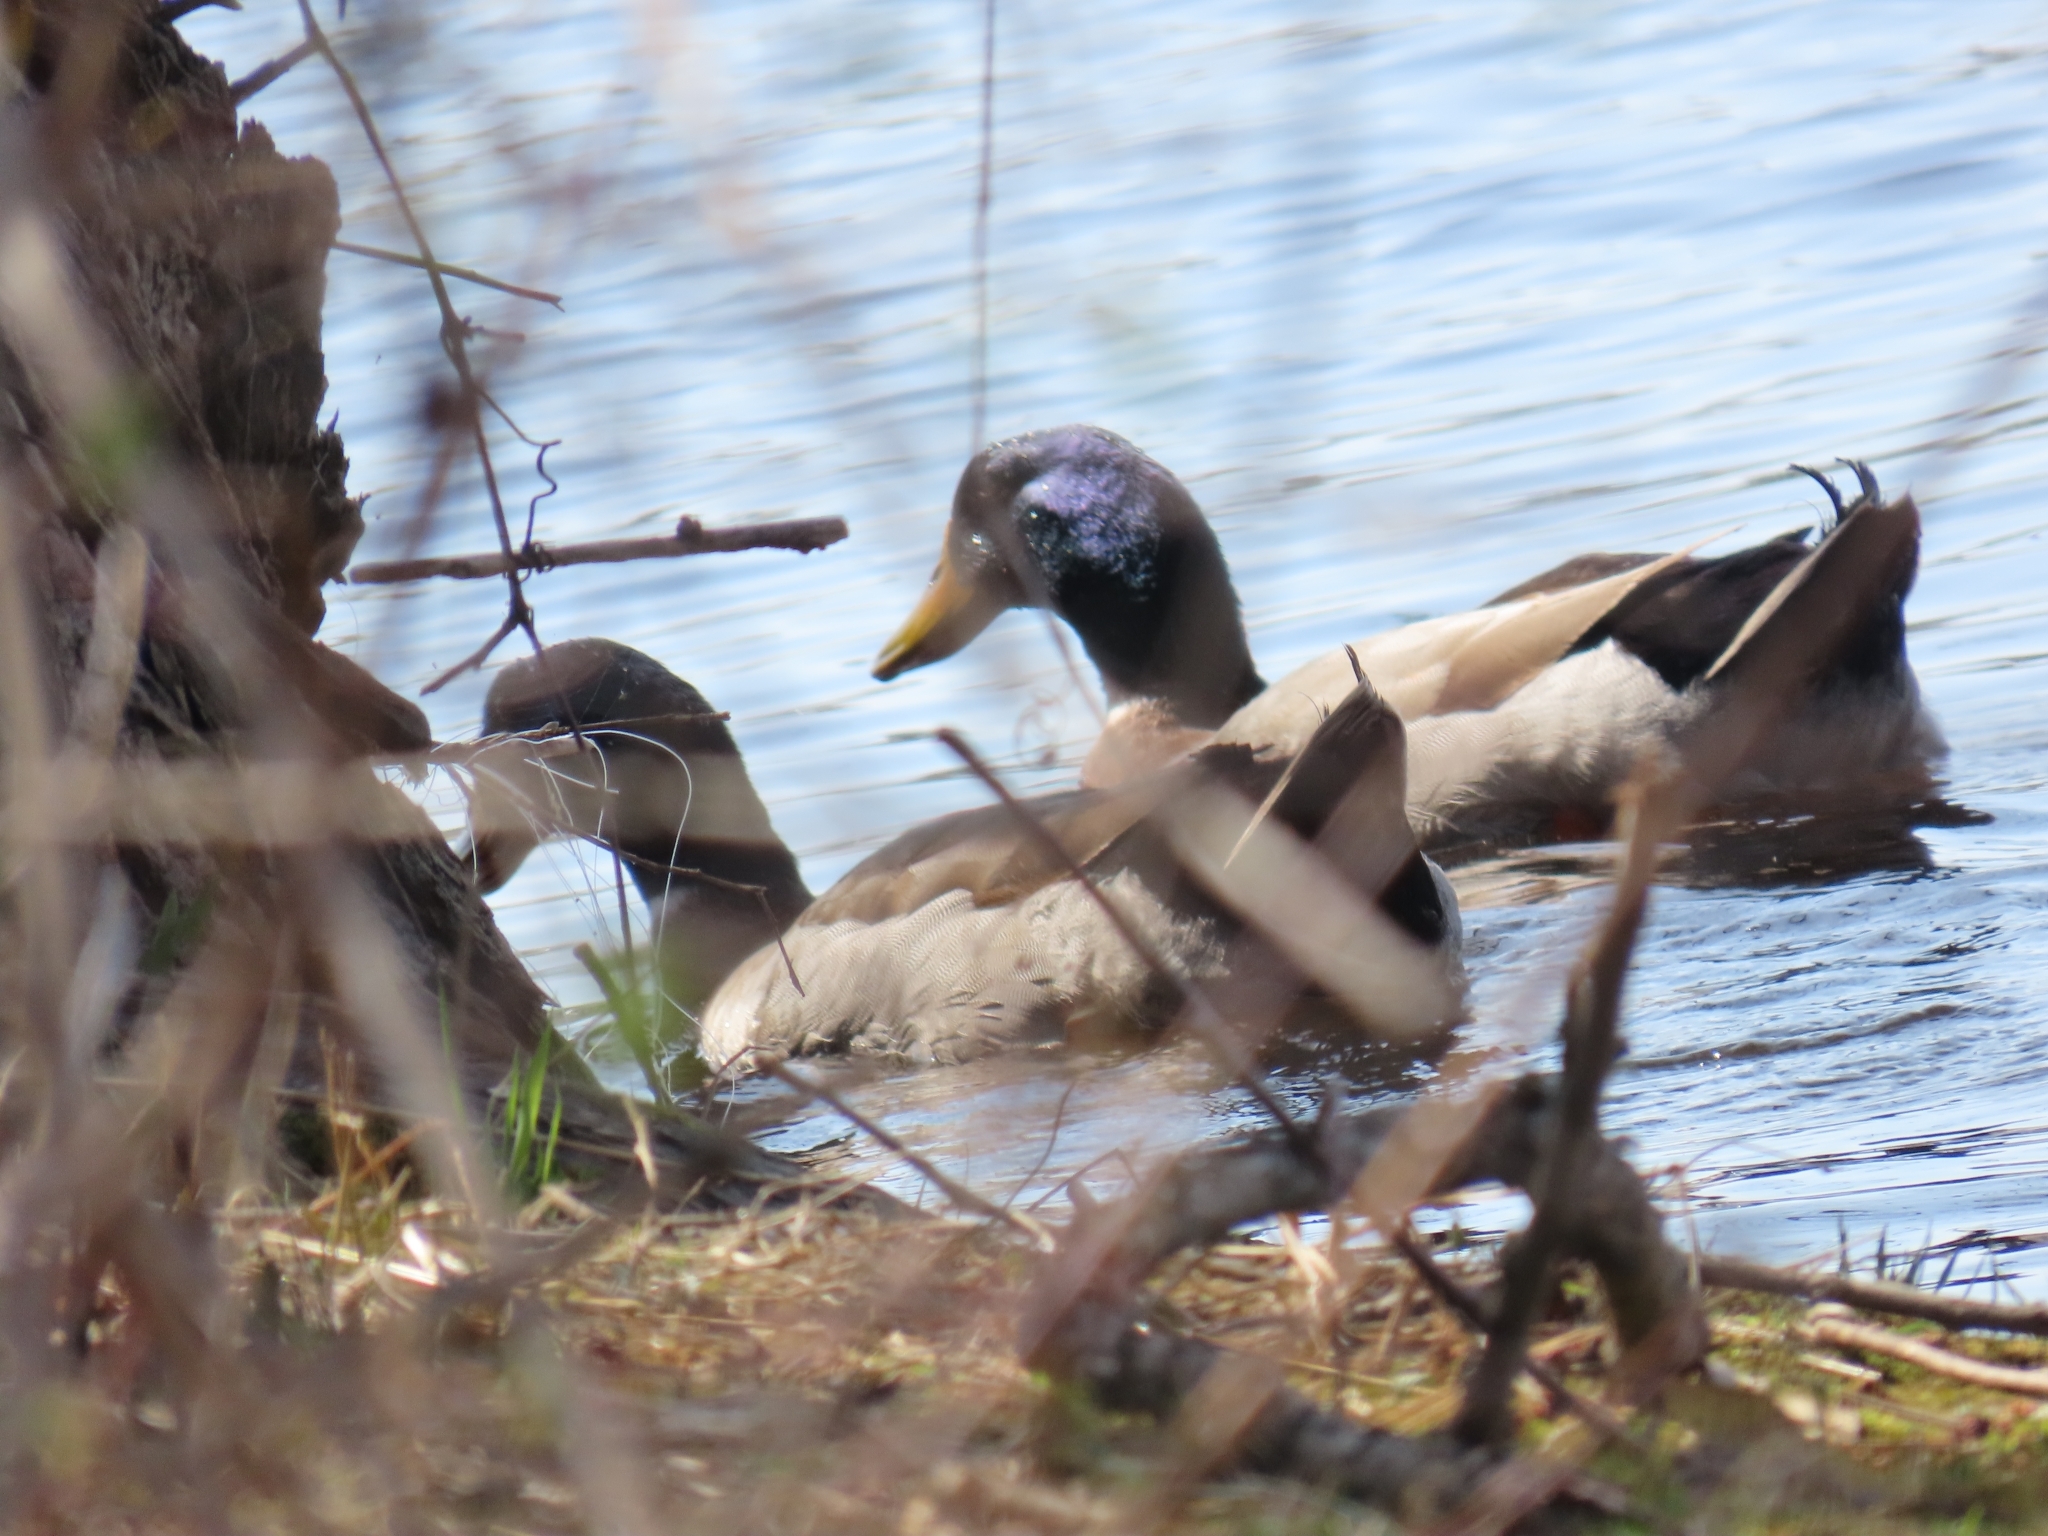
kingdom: Animalia
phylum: Chordata
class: Aves
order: Anseriformes
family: Anatidae
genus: Anas
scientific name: Anas platyrhynchos
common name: Mallard
